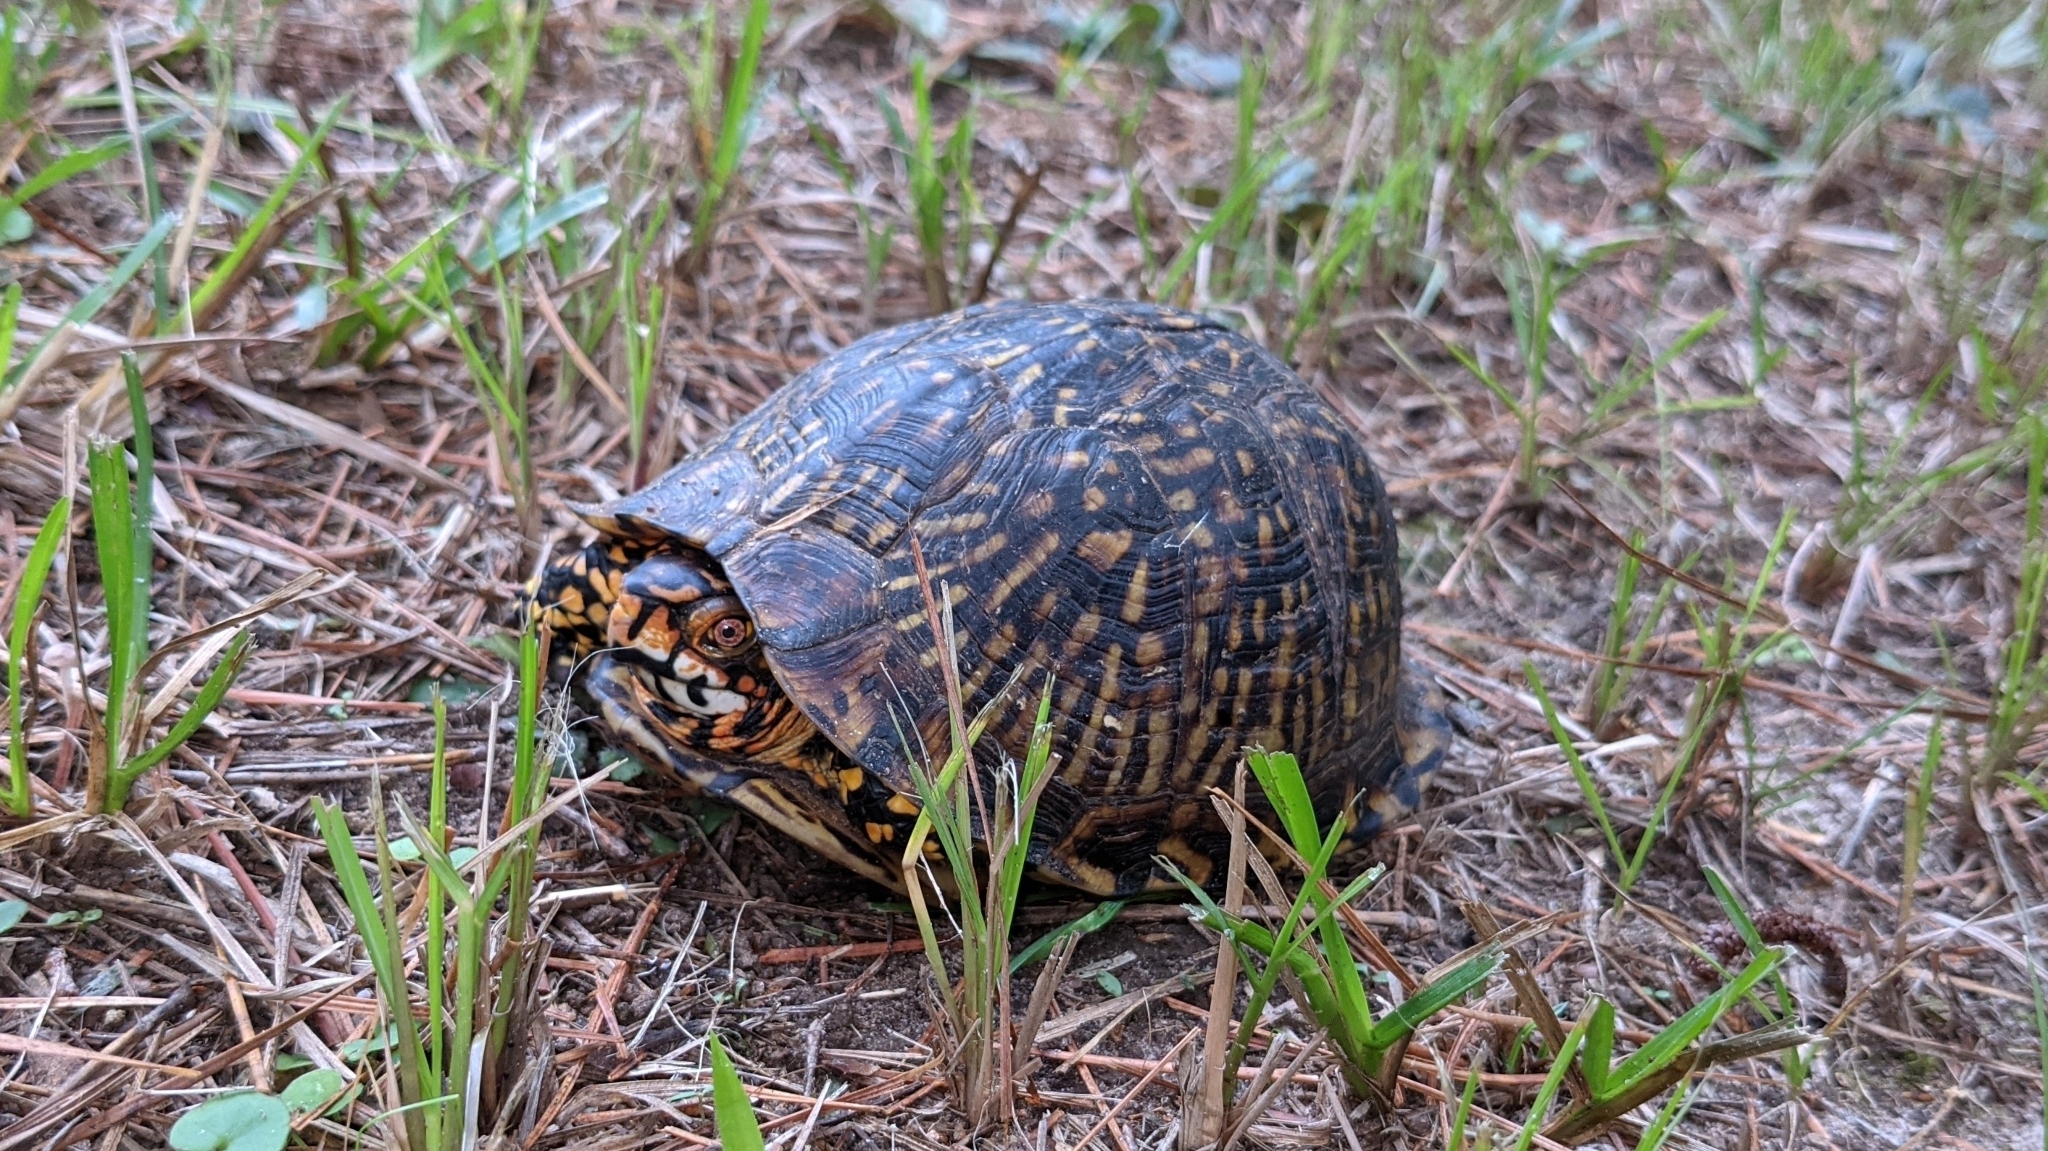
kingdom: Animalia
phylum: Chordata
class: Testudines
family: Emydidae
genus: Terrapene
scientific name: Terrapene carolina
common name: Common box turtle
